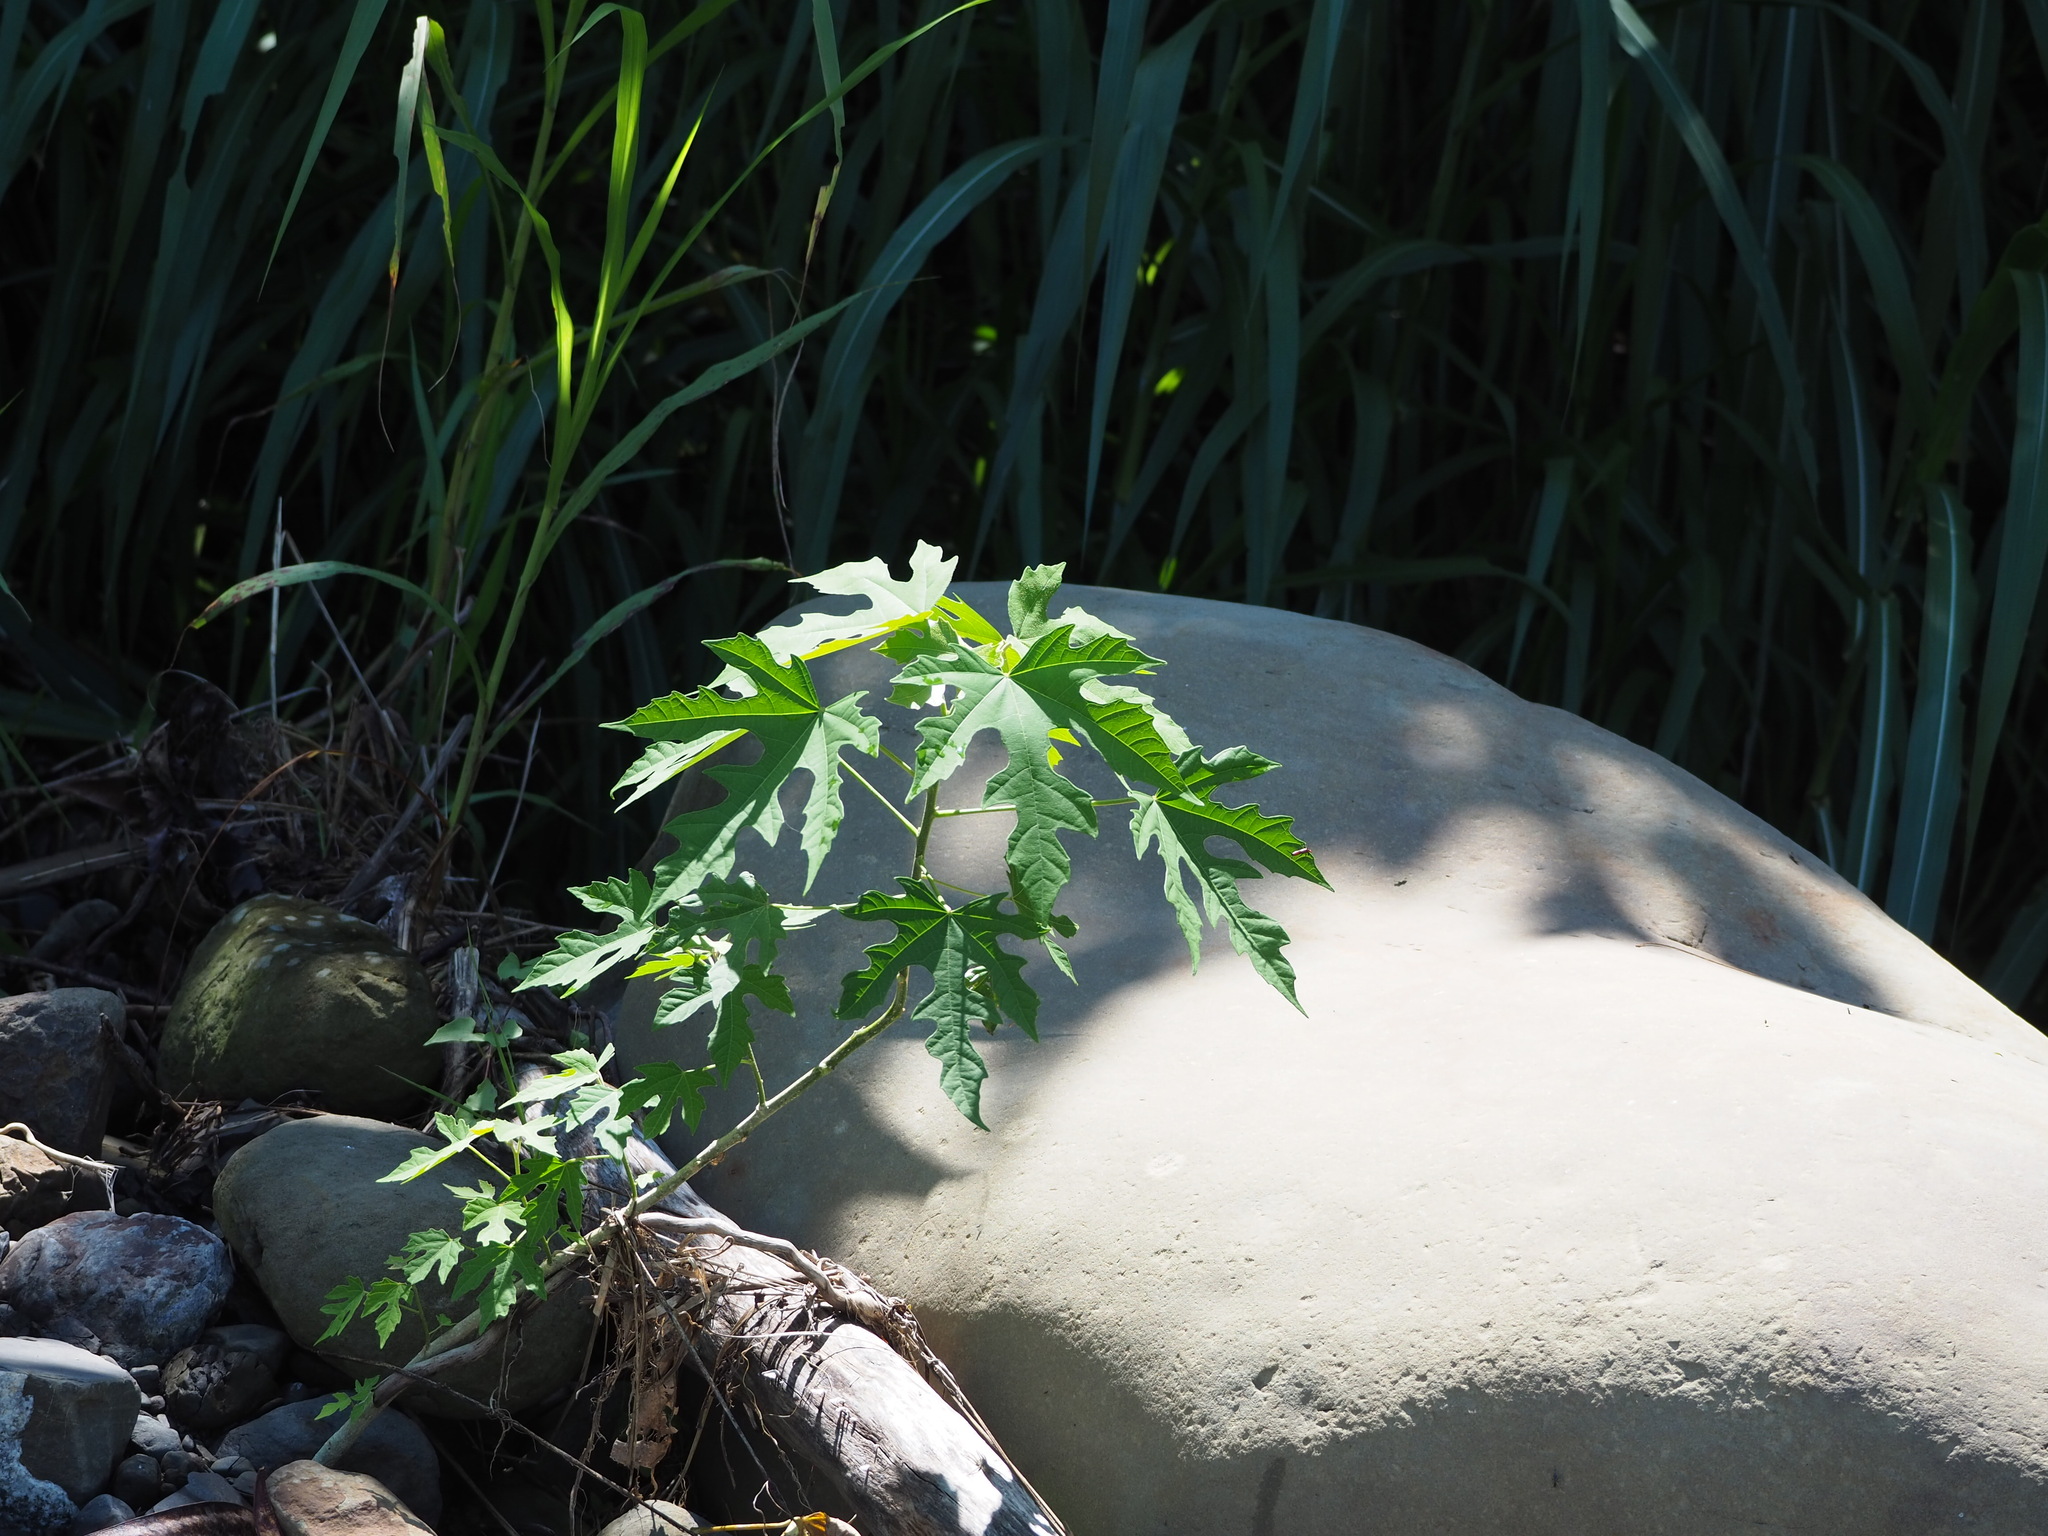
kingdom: Plantae
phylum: Tracheophyta
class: Magnoliopsida
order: Malpighiales
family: Euphorbiaceae
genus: Melanolepis
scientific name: Melanolepis multiglandulosa
